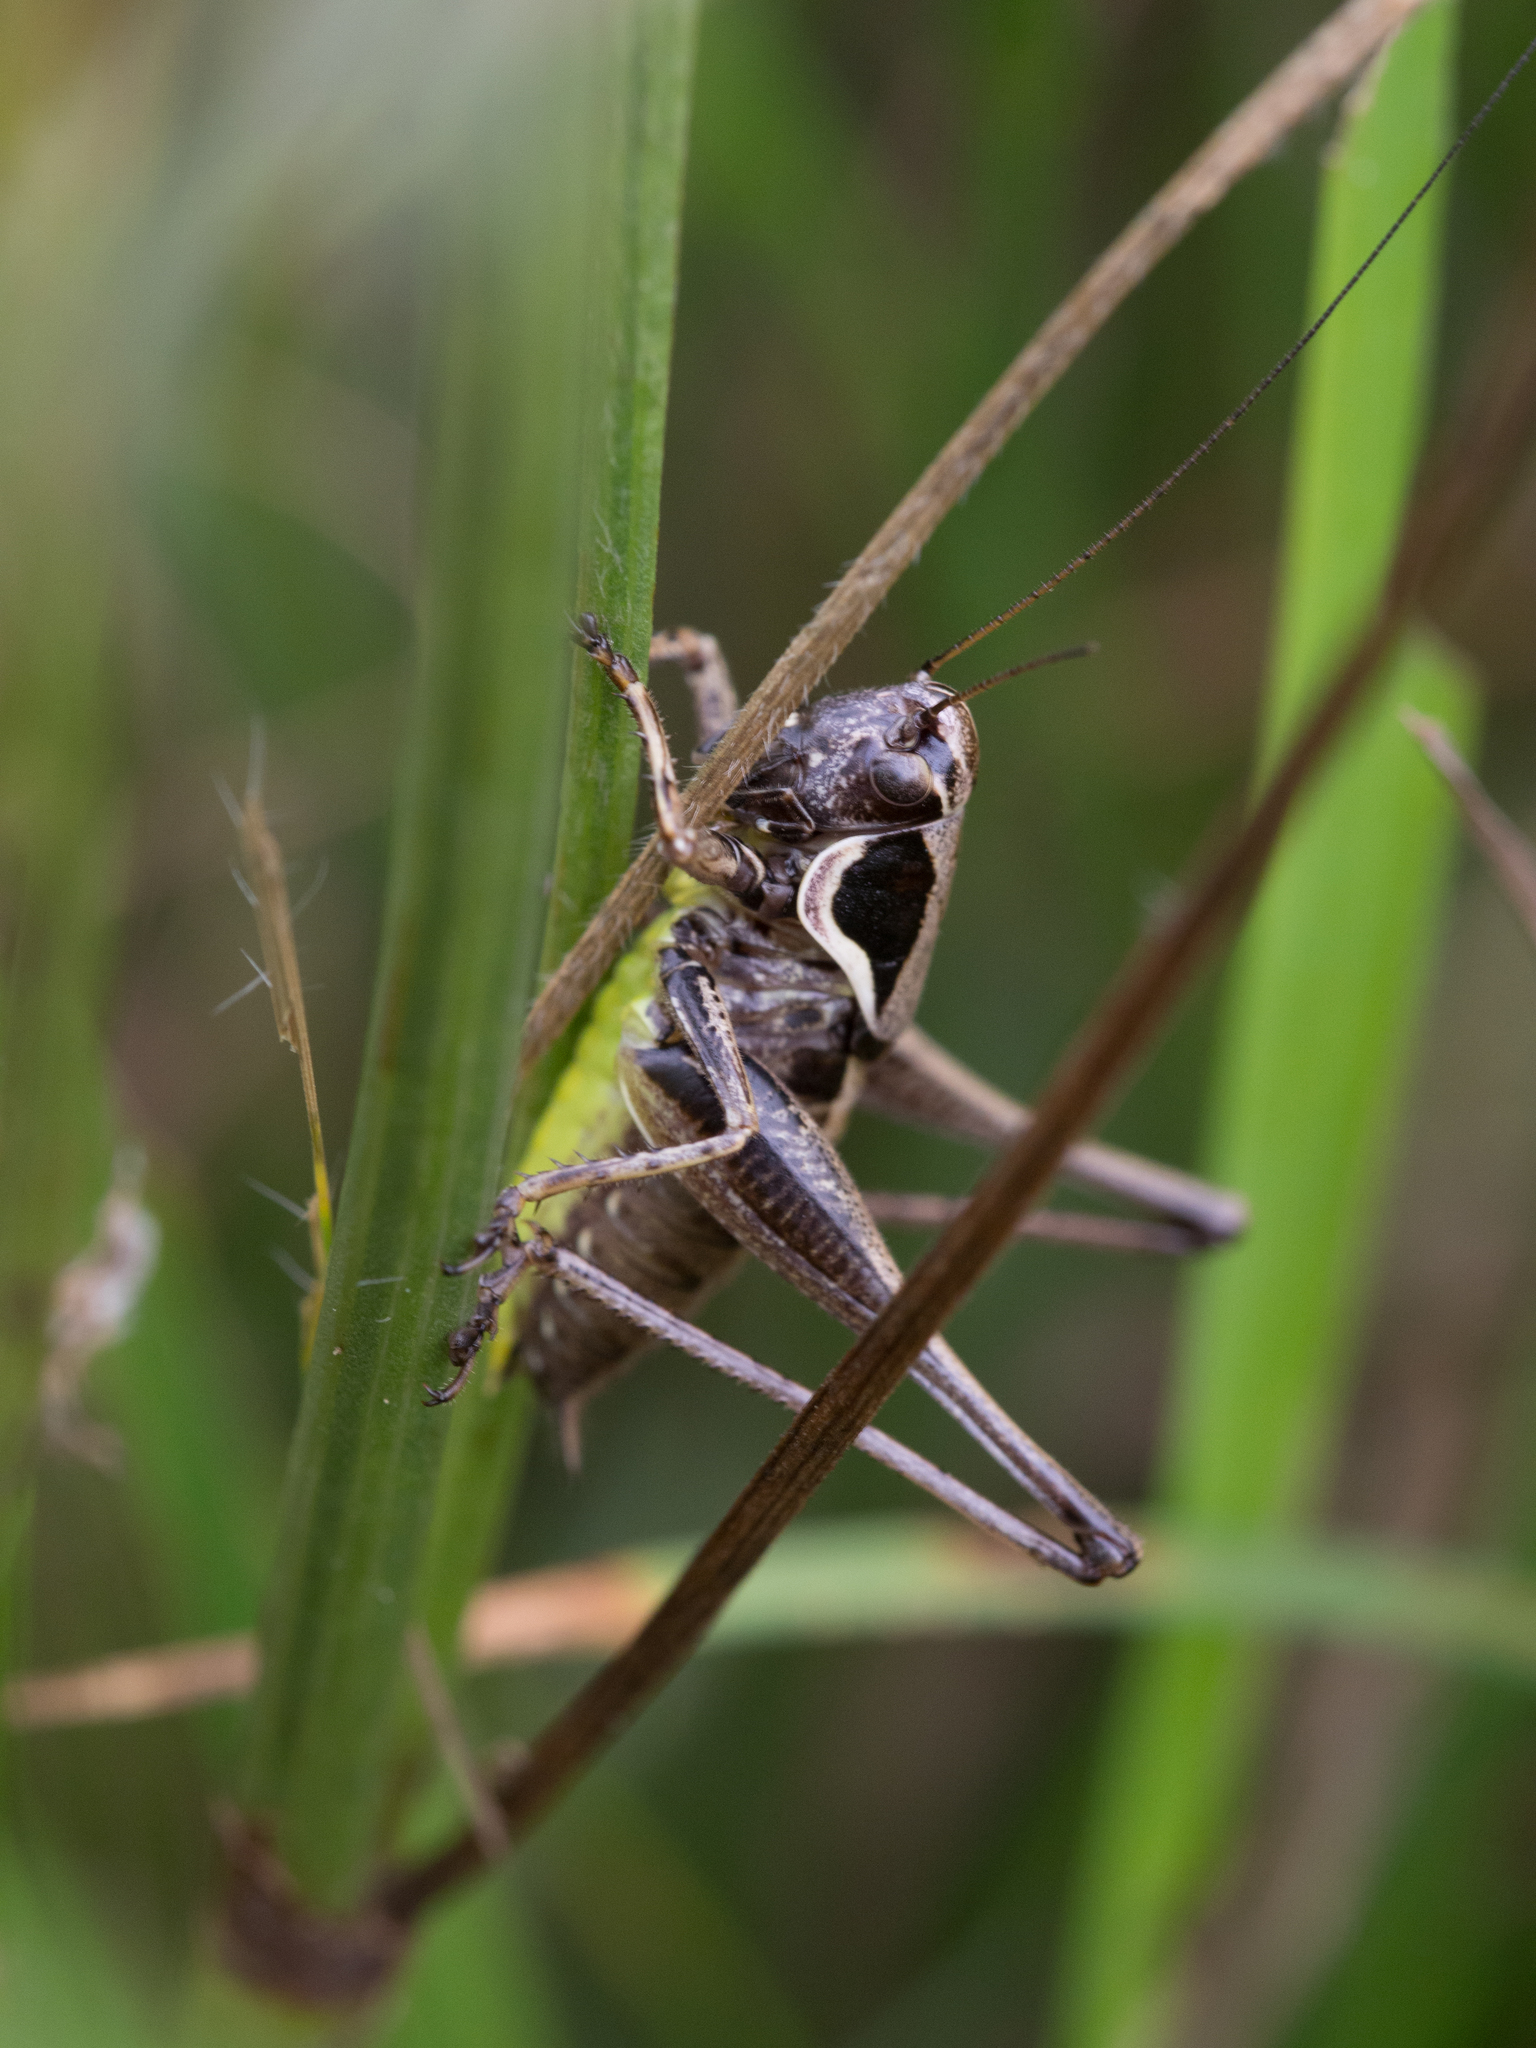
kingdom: Animalia
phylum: Arthropoda
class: Insecta
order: Orthoptera
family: Tettigoniidae
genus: Pholidoptera
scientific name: Pholidoptera fallax
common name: Fischer's bush-cricket
